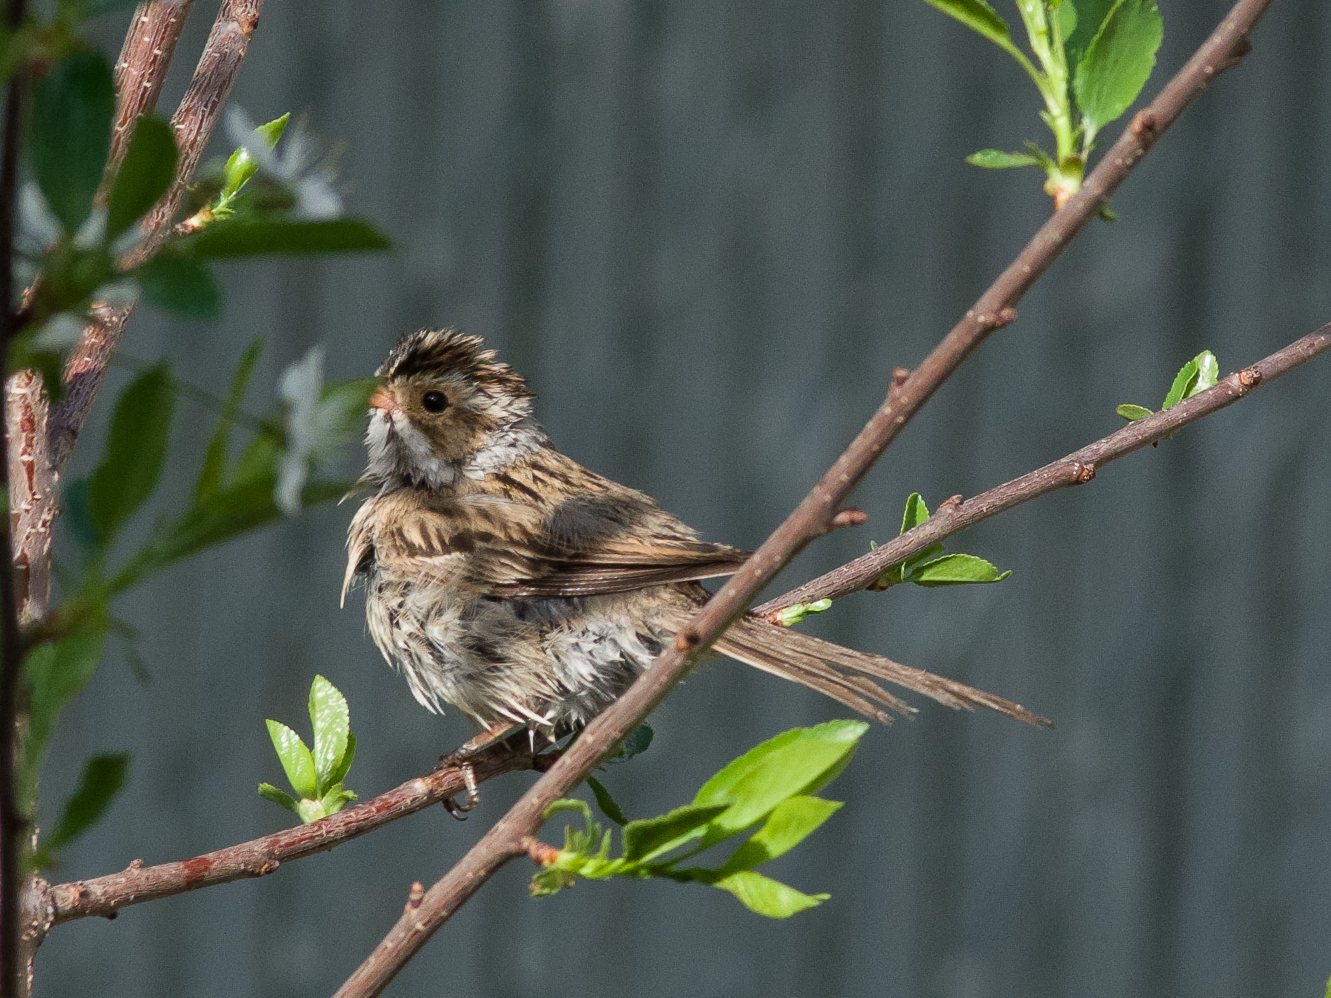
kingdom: Animalia
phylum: Chordata
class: Aves
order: Passeriformes
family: Passerellidae
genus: Spizella
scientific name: Spizella pallida
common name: Clay-colored sparrow
